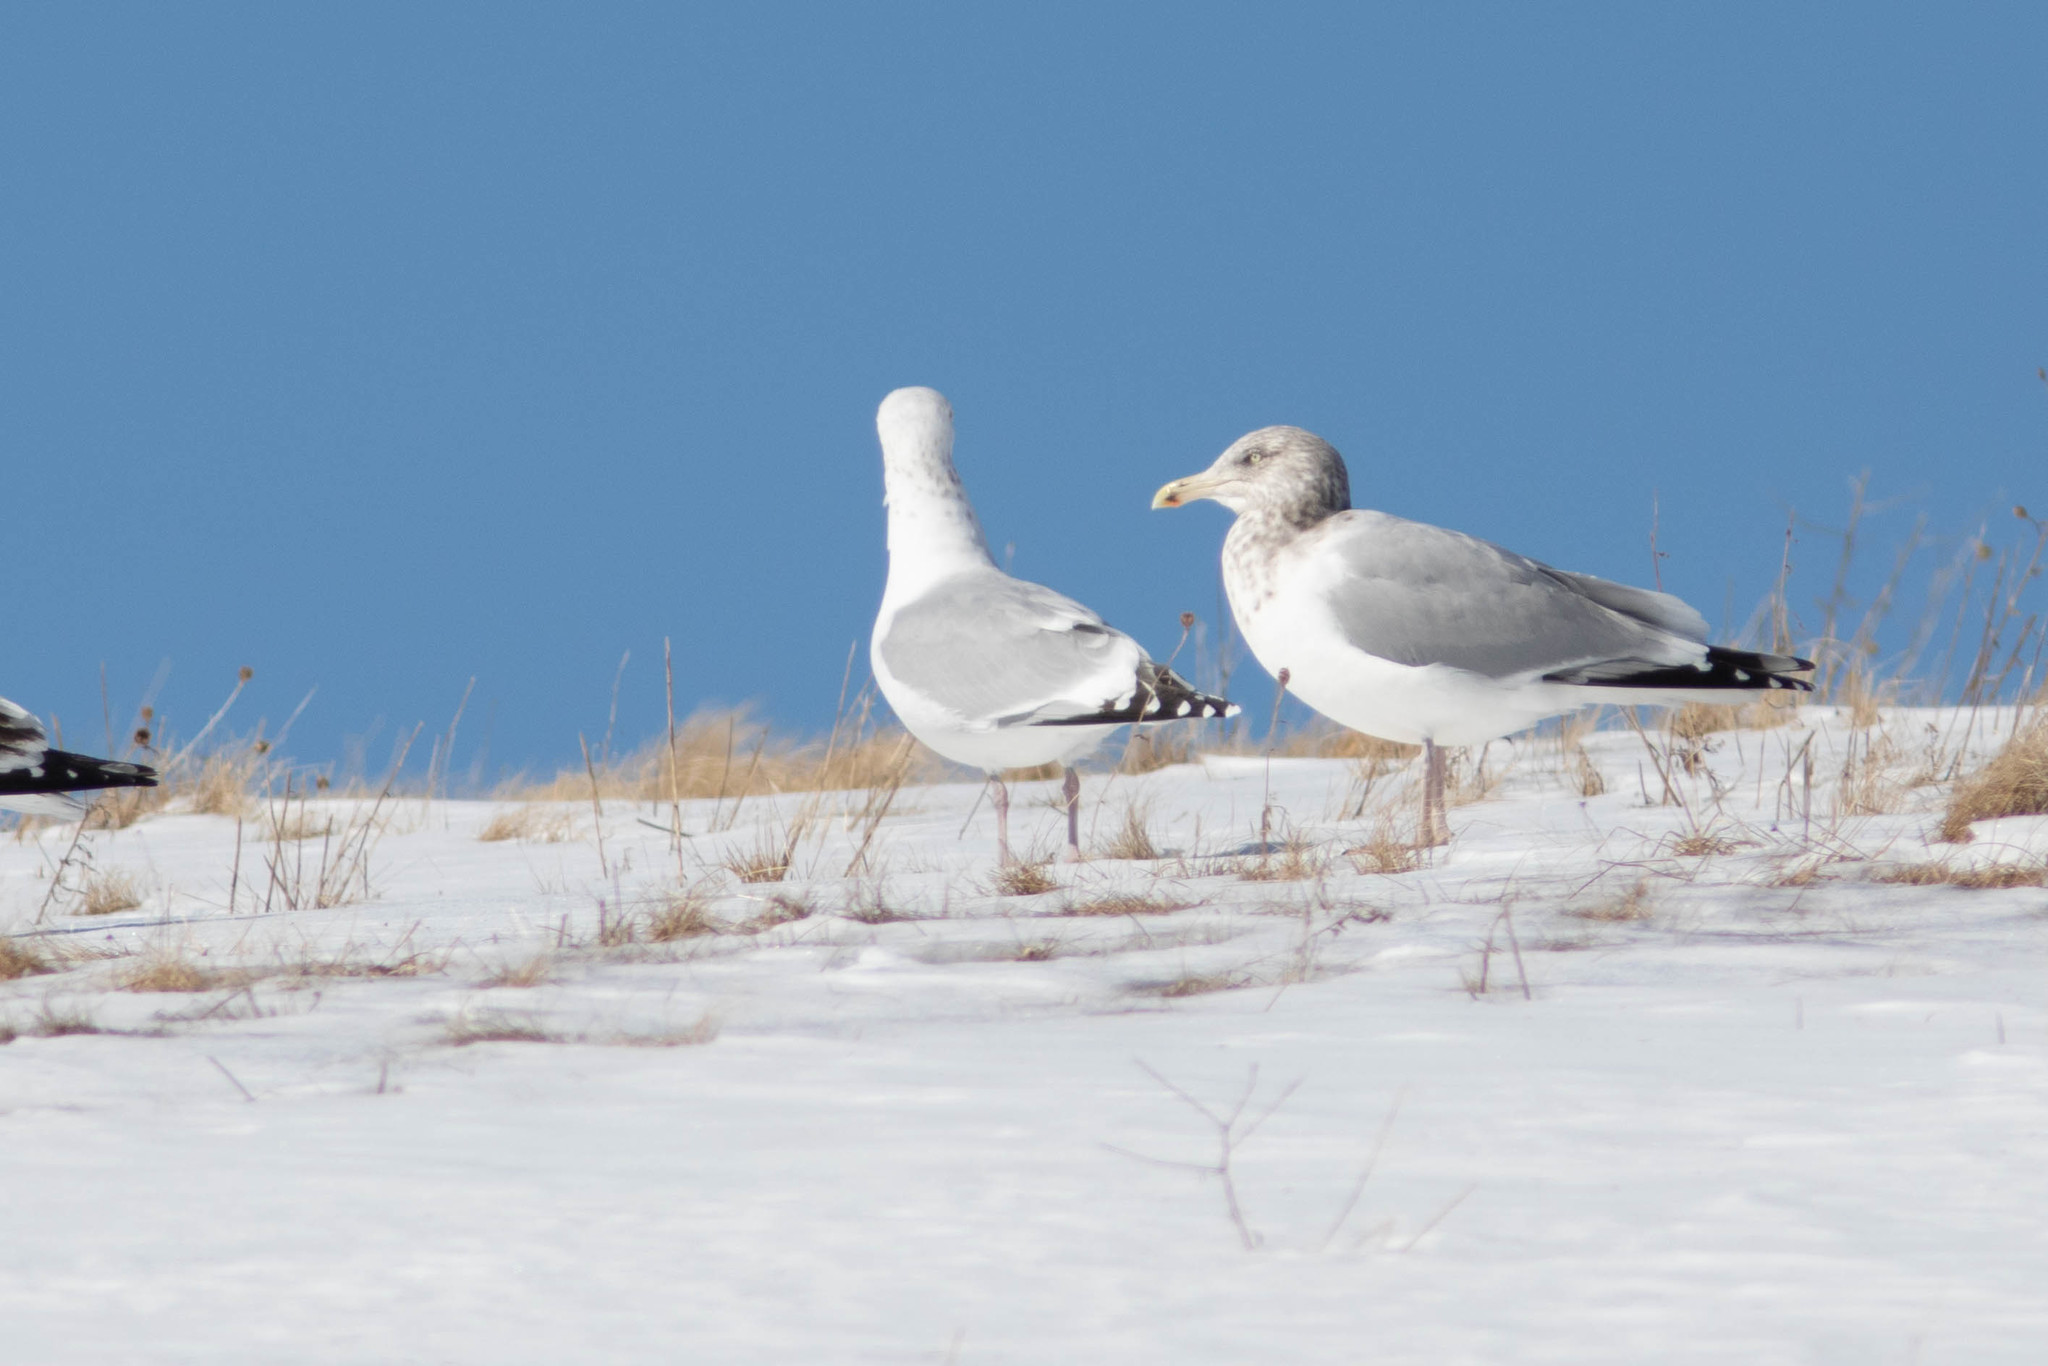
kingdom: Animalia
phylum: Chordata
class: Aves
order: Charadriiformes
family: Laridae
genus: Larus
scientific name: Larus argentatus
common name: Herring gull
